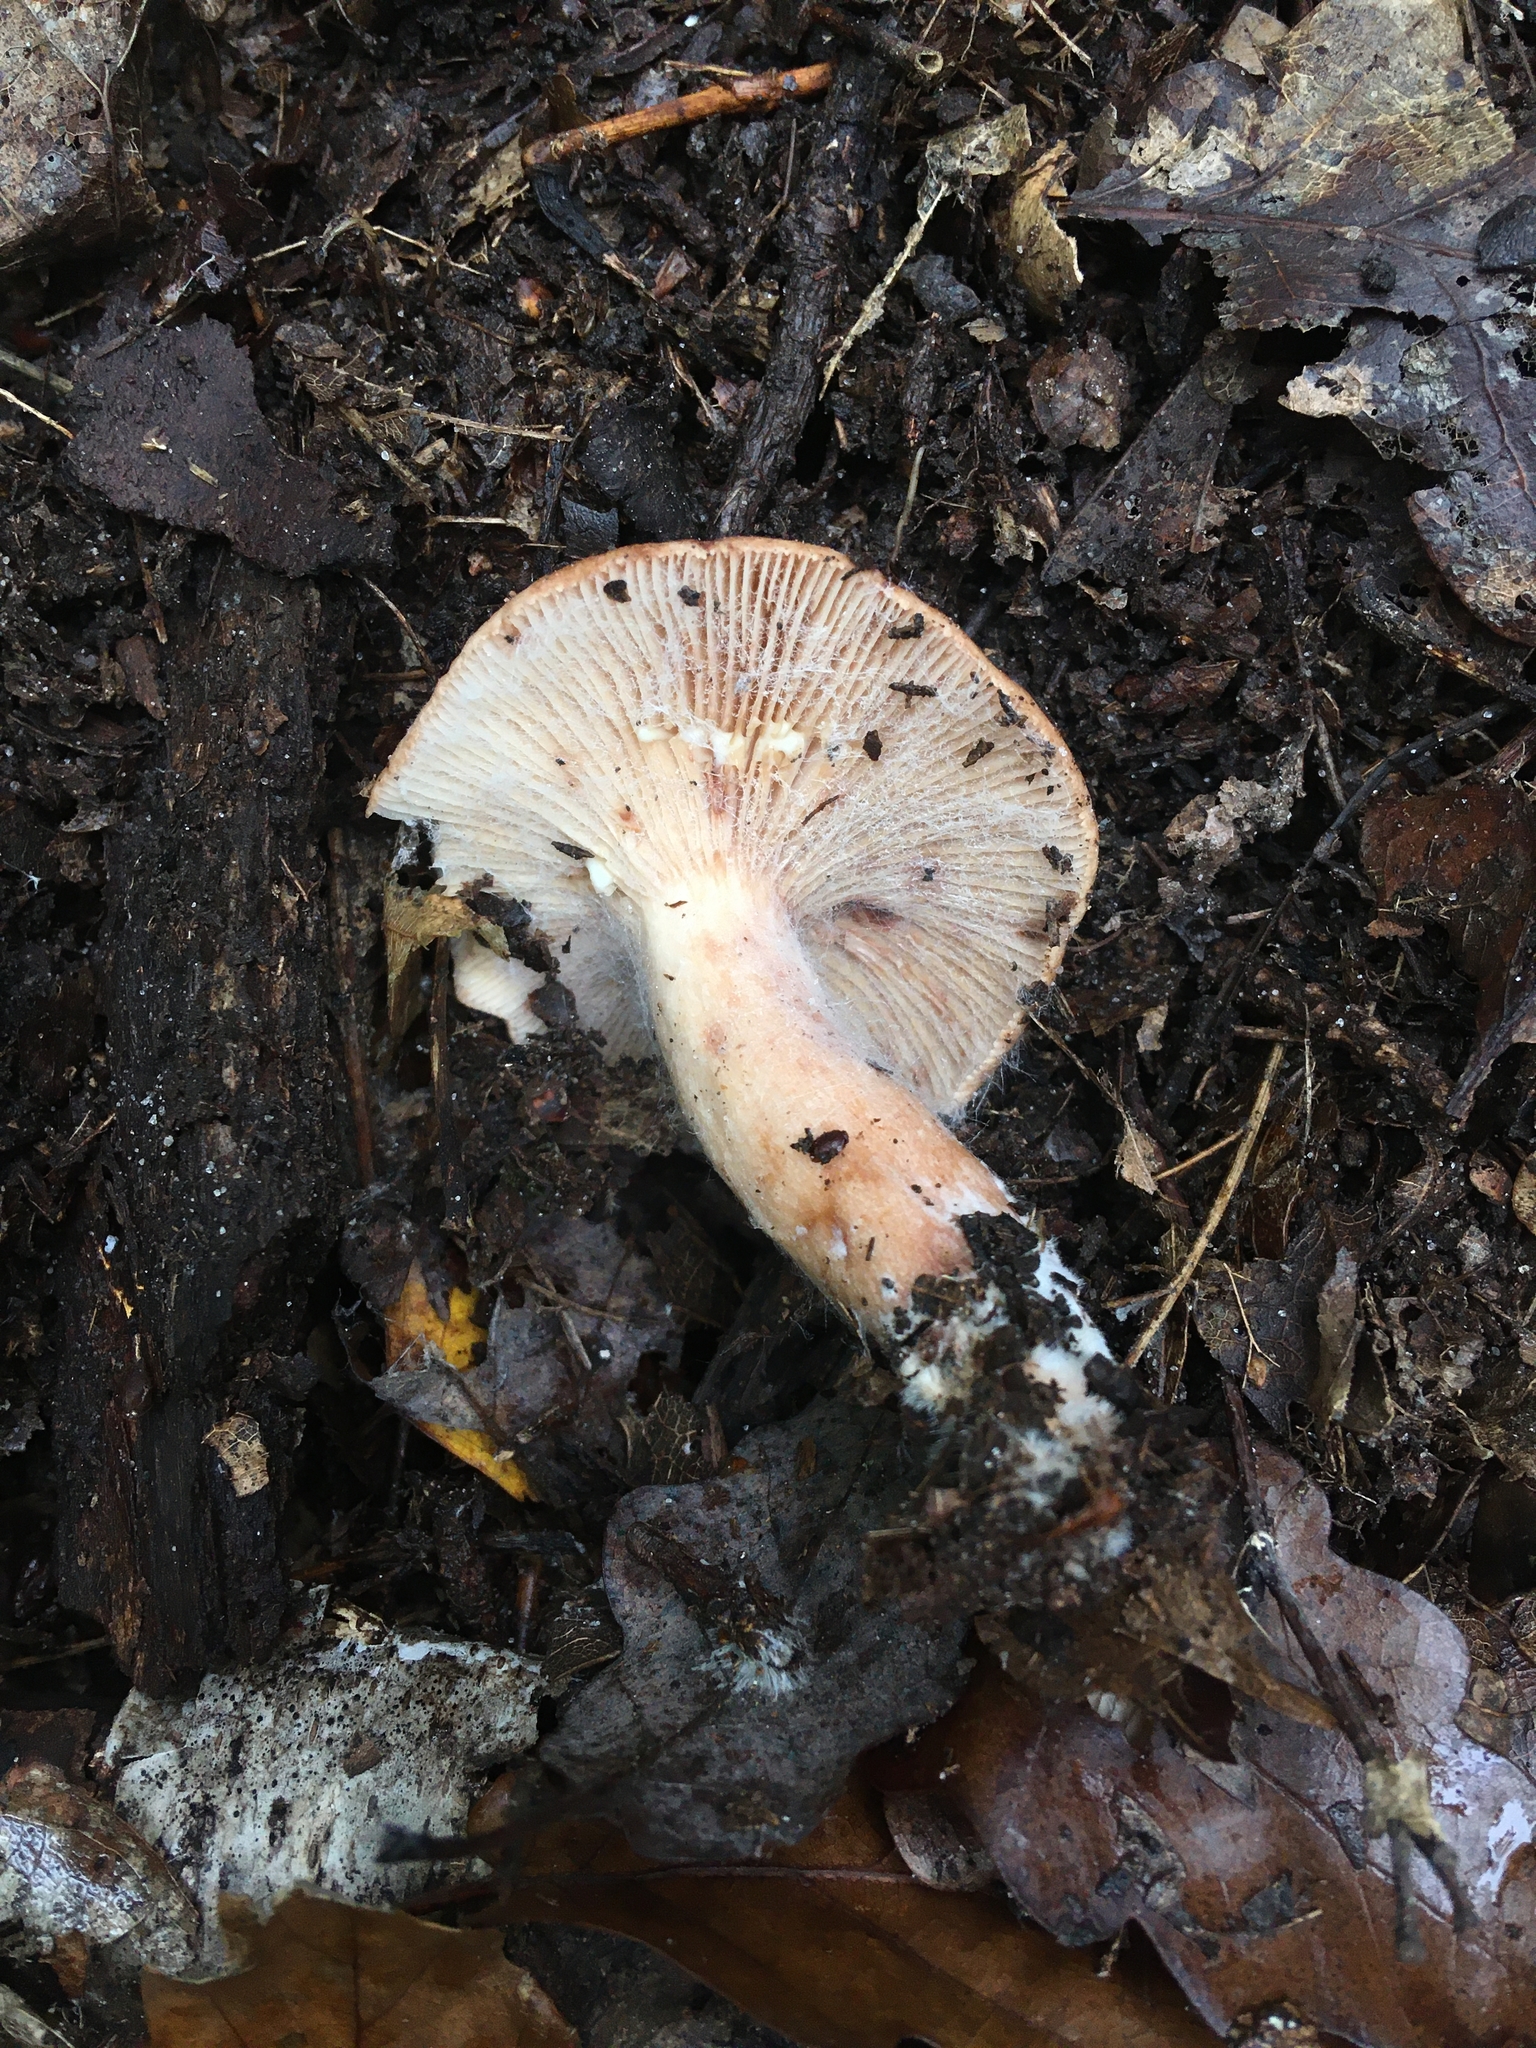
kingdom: Fungi
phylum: Basidiomycota
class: Agaricomycetes
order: Russulales
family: Russulaceae
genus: Lactarius
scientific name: Lactarius chrysorrheus
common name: Yellowdrop milkcap
